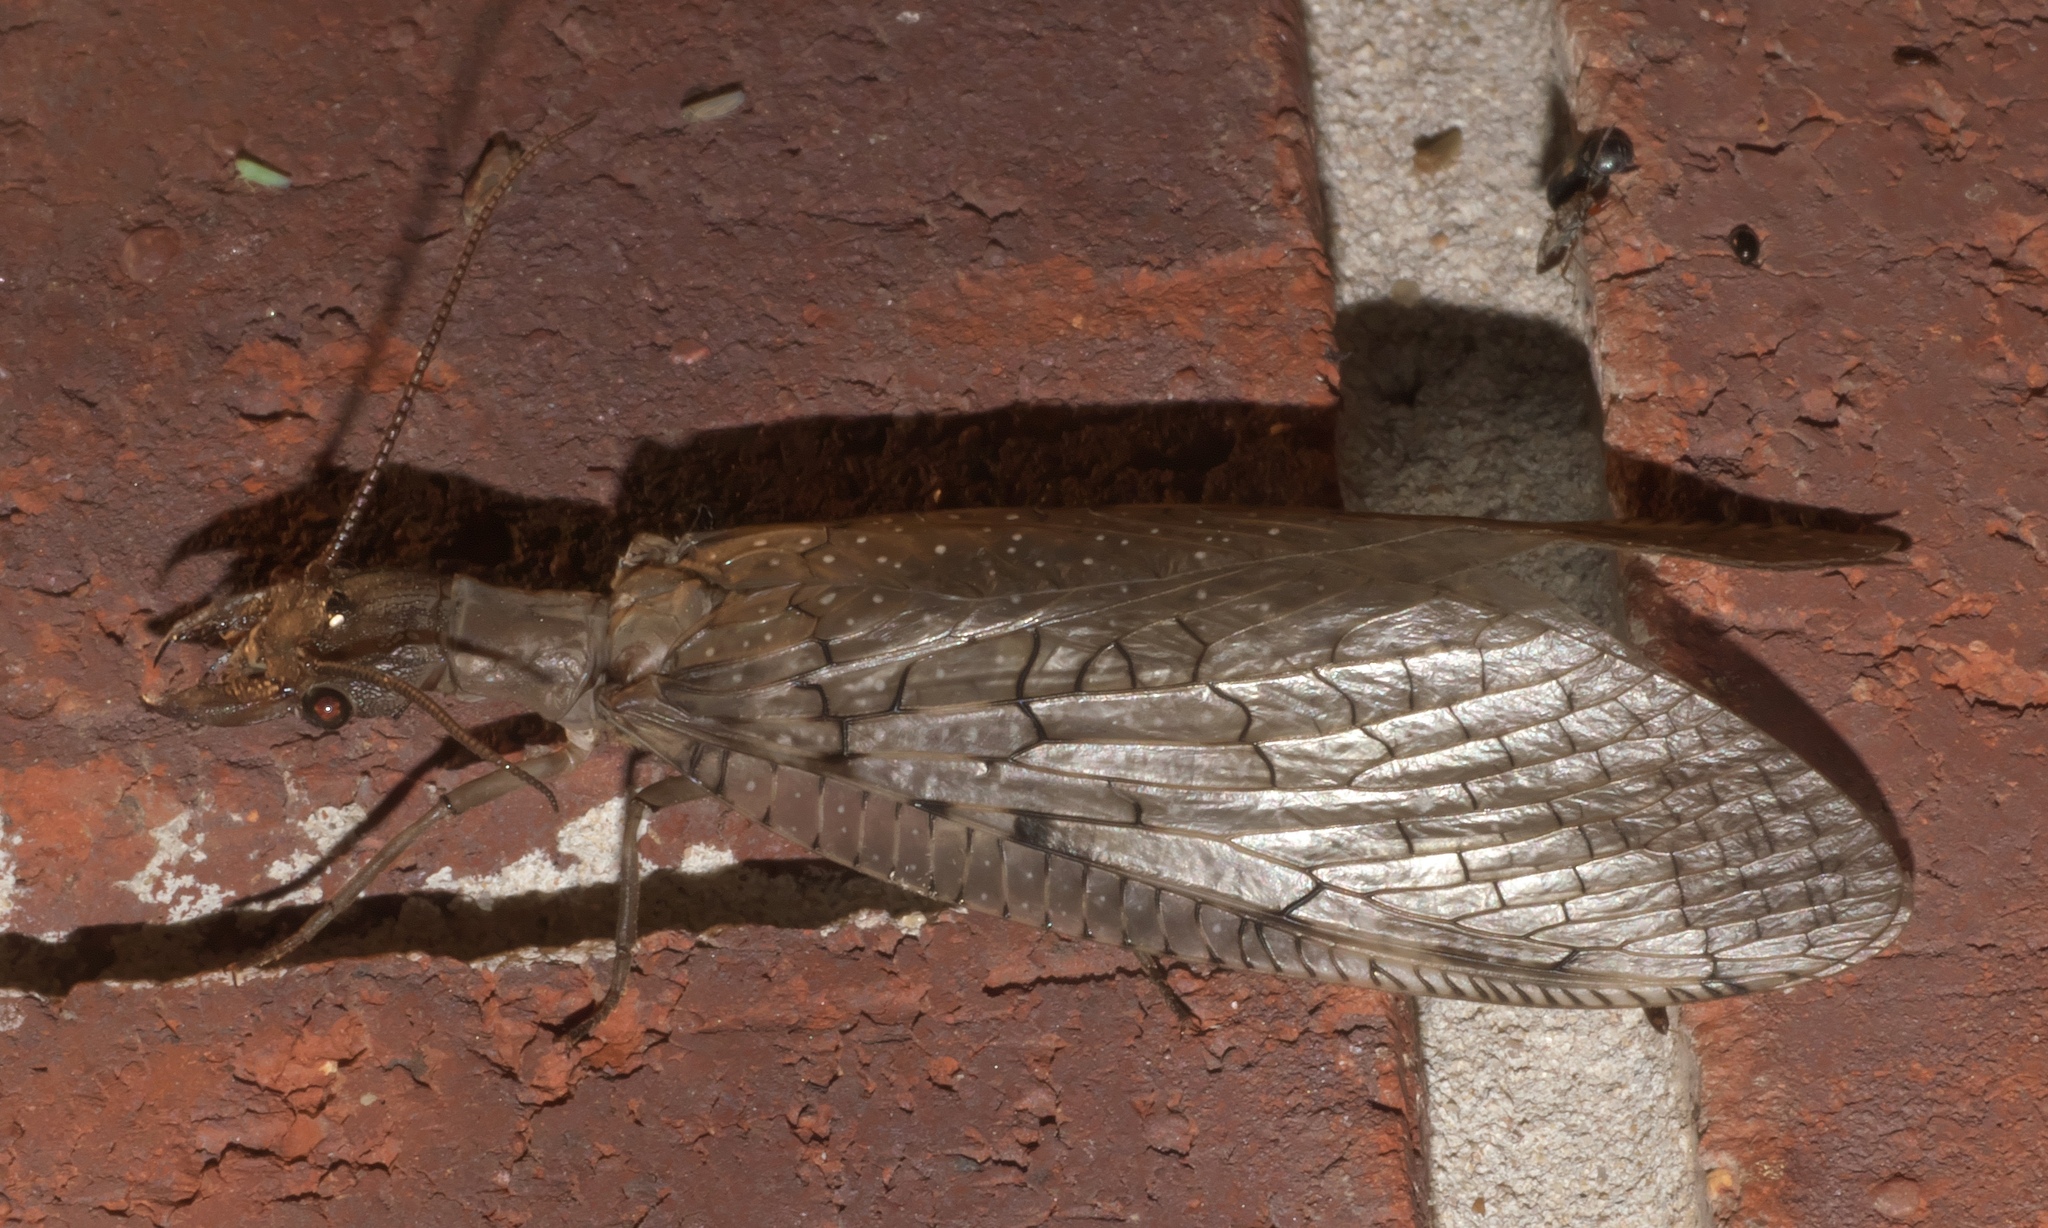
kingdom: Animalia
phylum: Arthropoda
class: Insecta
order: Megaloptera
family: Corydalidae
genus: Corydalus
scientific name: Corydalus cornutus
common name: Dobsonfly
